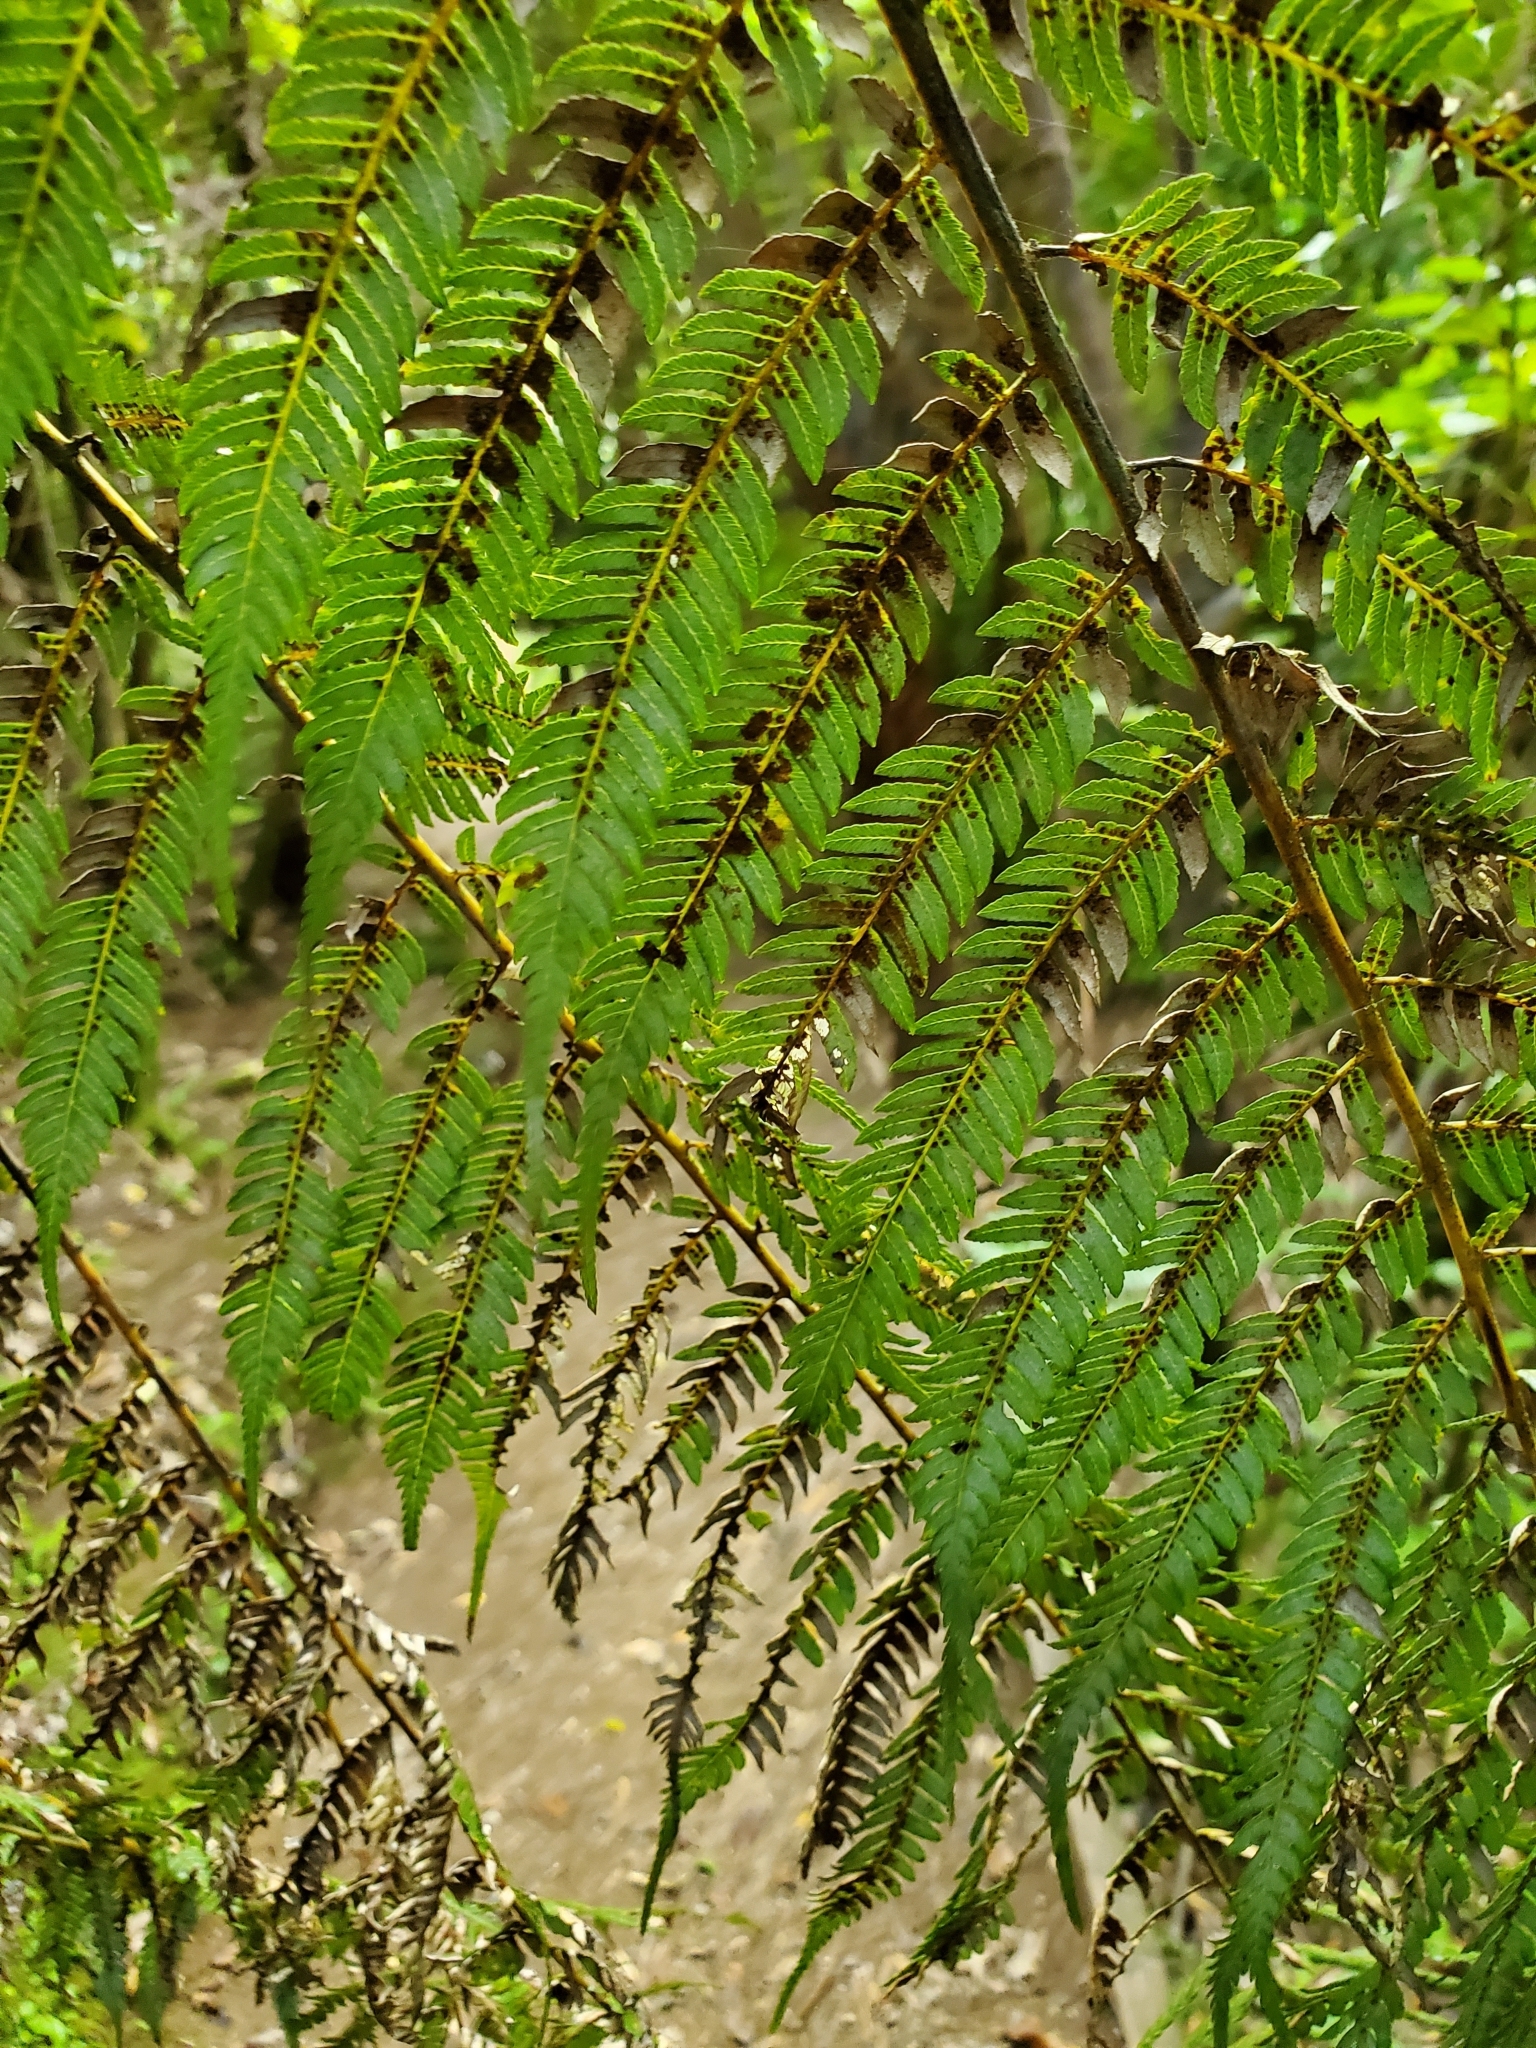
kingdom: Plantae
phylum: Tracheophyta
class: Polypodiopsida
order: Cyatheales
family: Cyatheaceae
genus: Alsophila
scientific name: Alsophila dealbata
